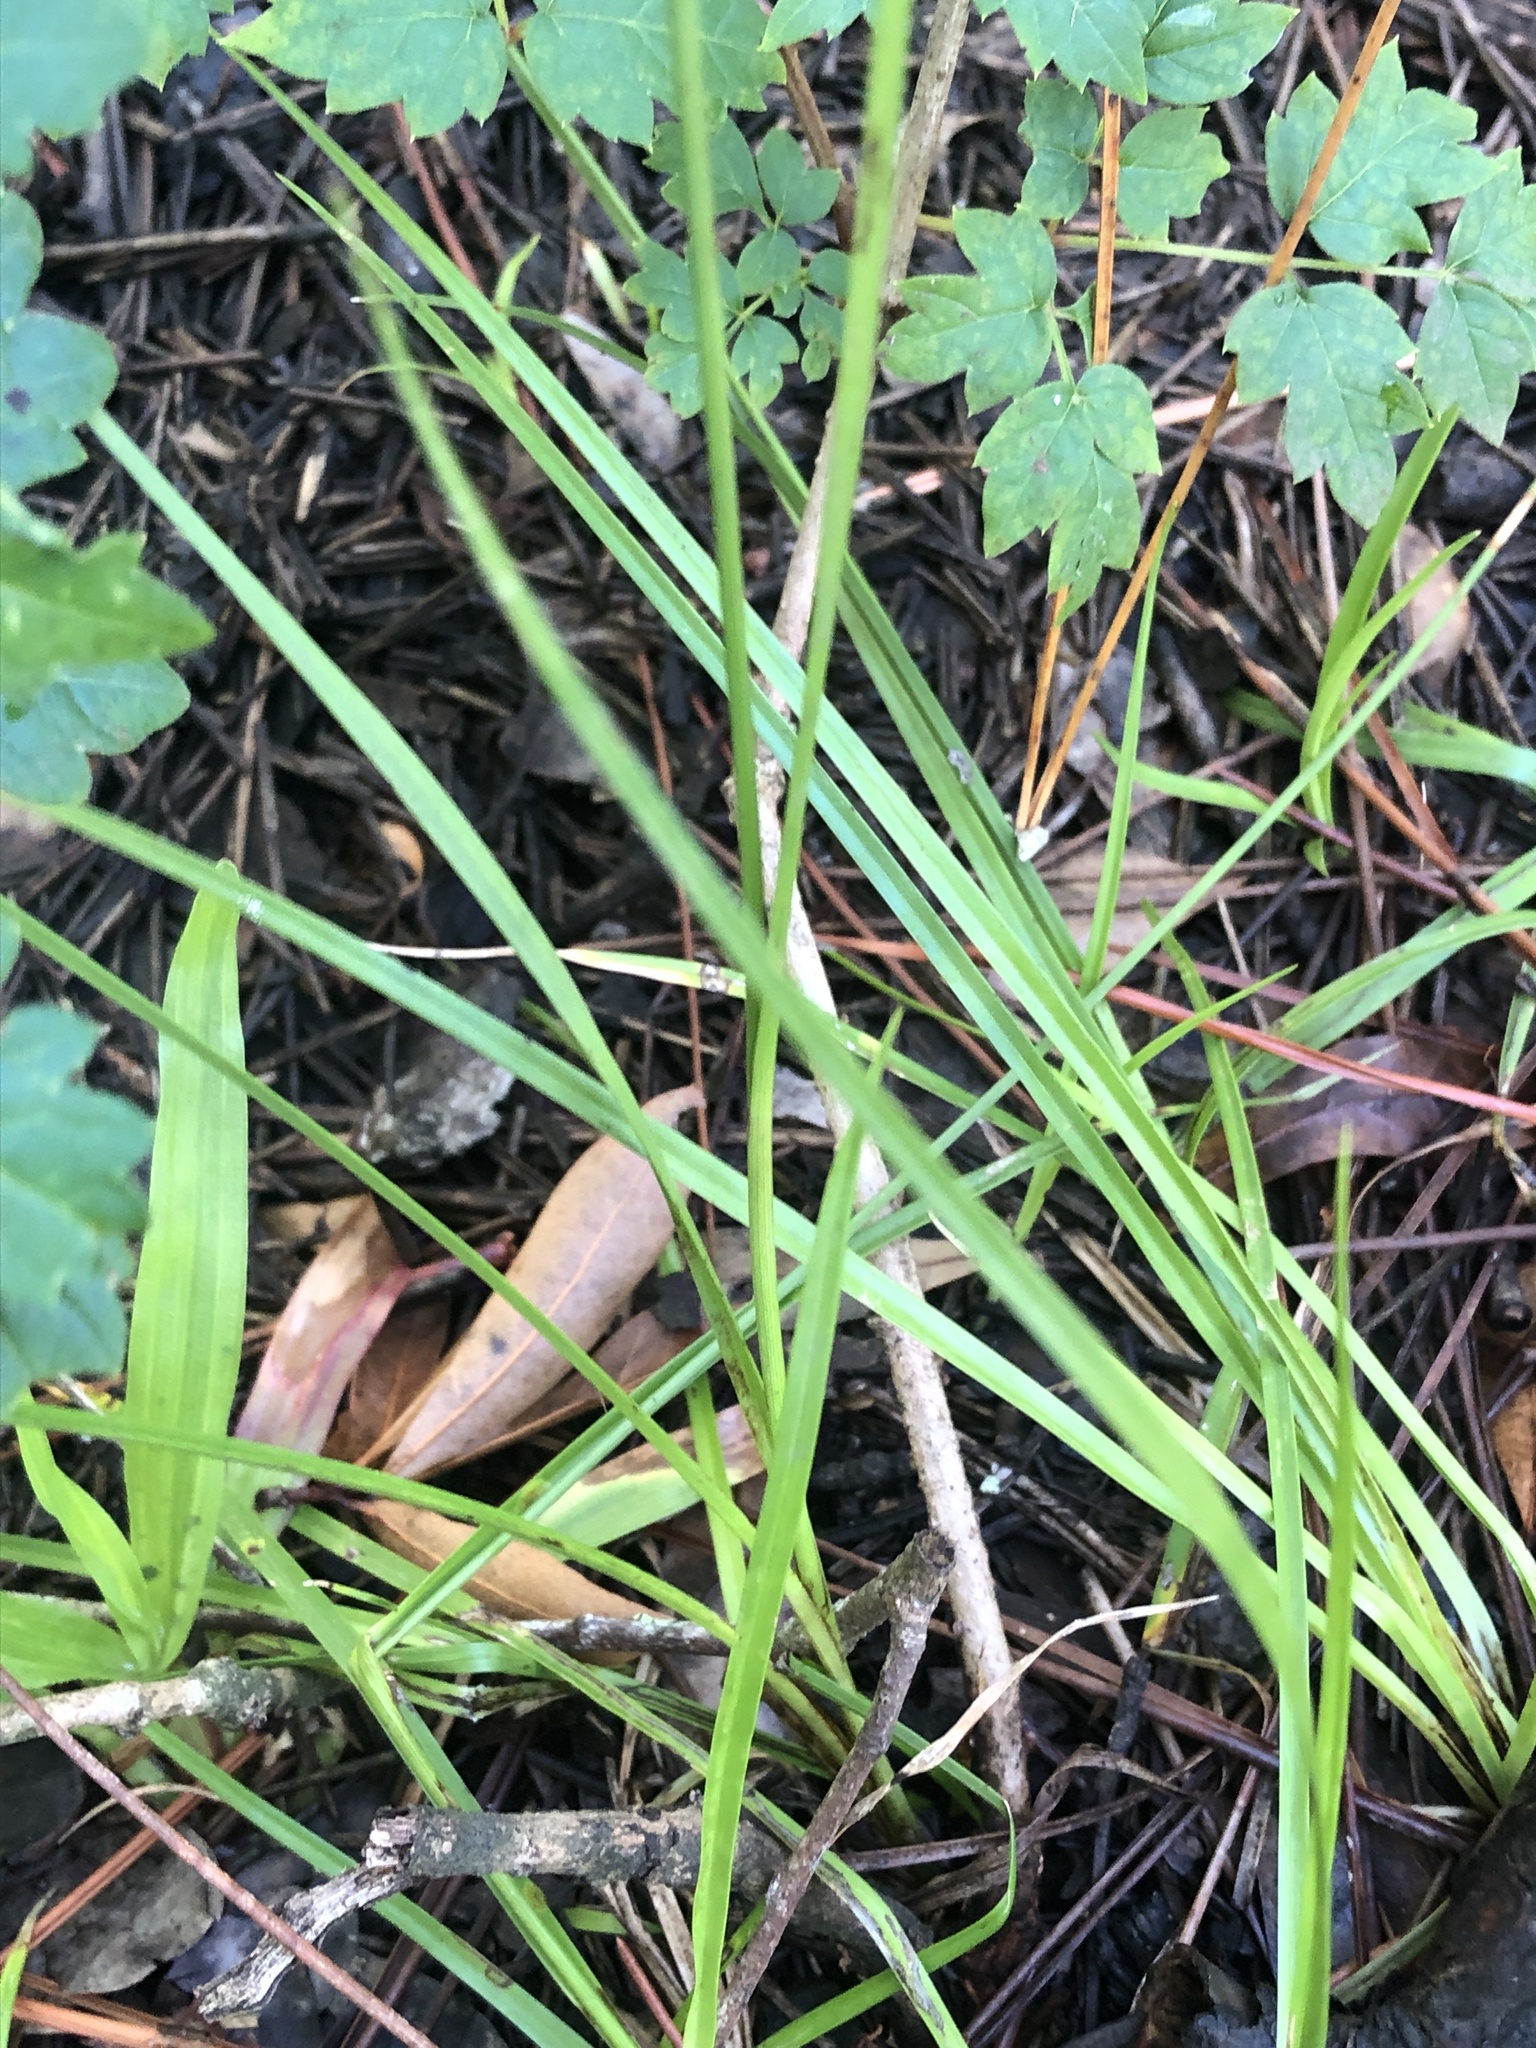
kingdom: Plantae
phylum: Tracheophyta
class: Liliopsida
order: Poales
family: Cyperaceae
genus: Rhynchospora
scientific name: Rhynchospora colorata
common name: Star sedge
